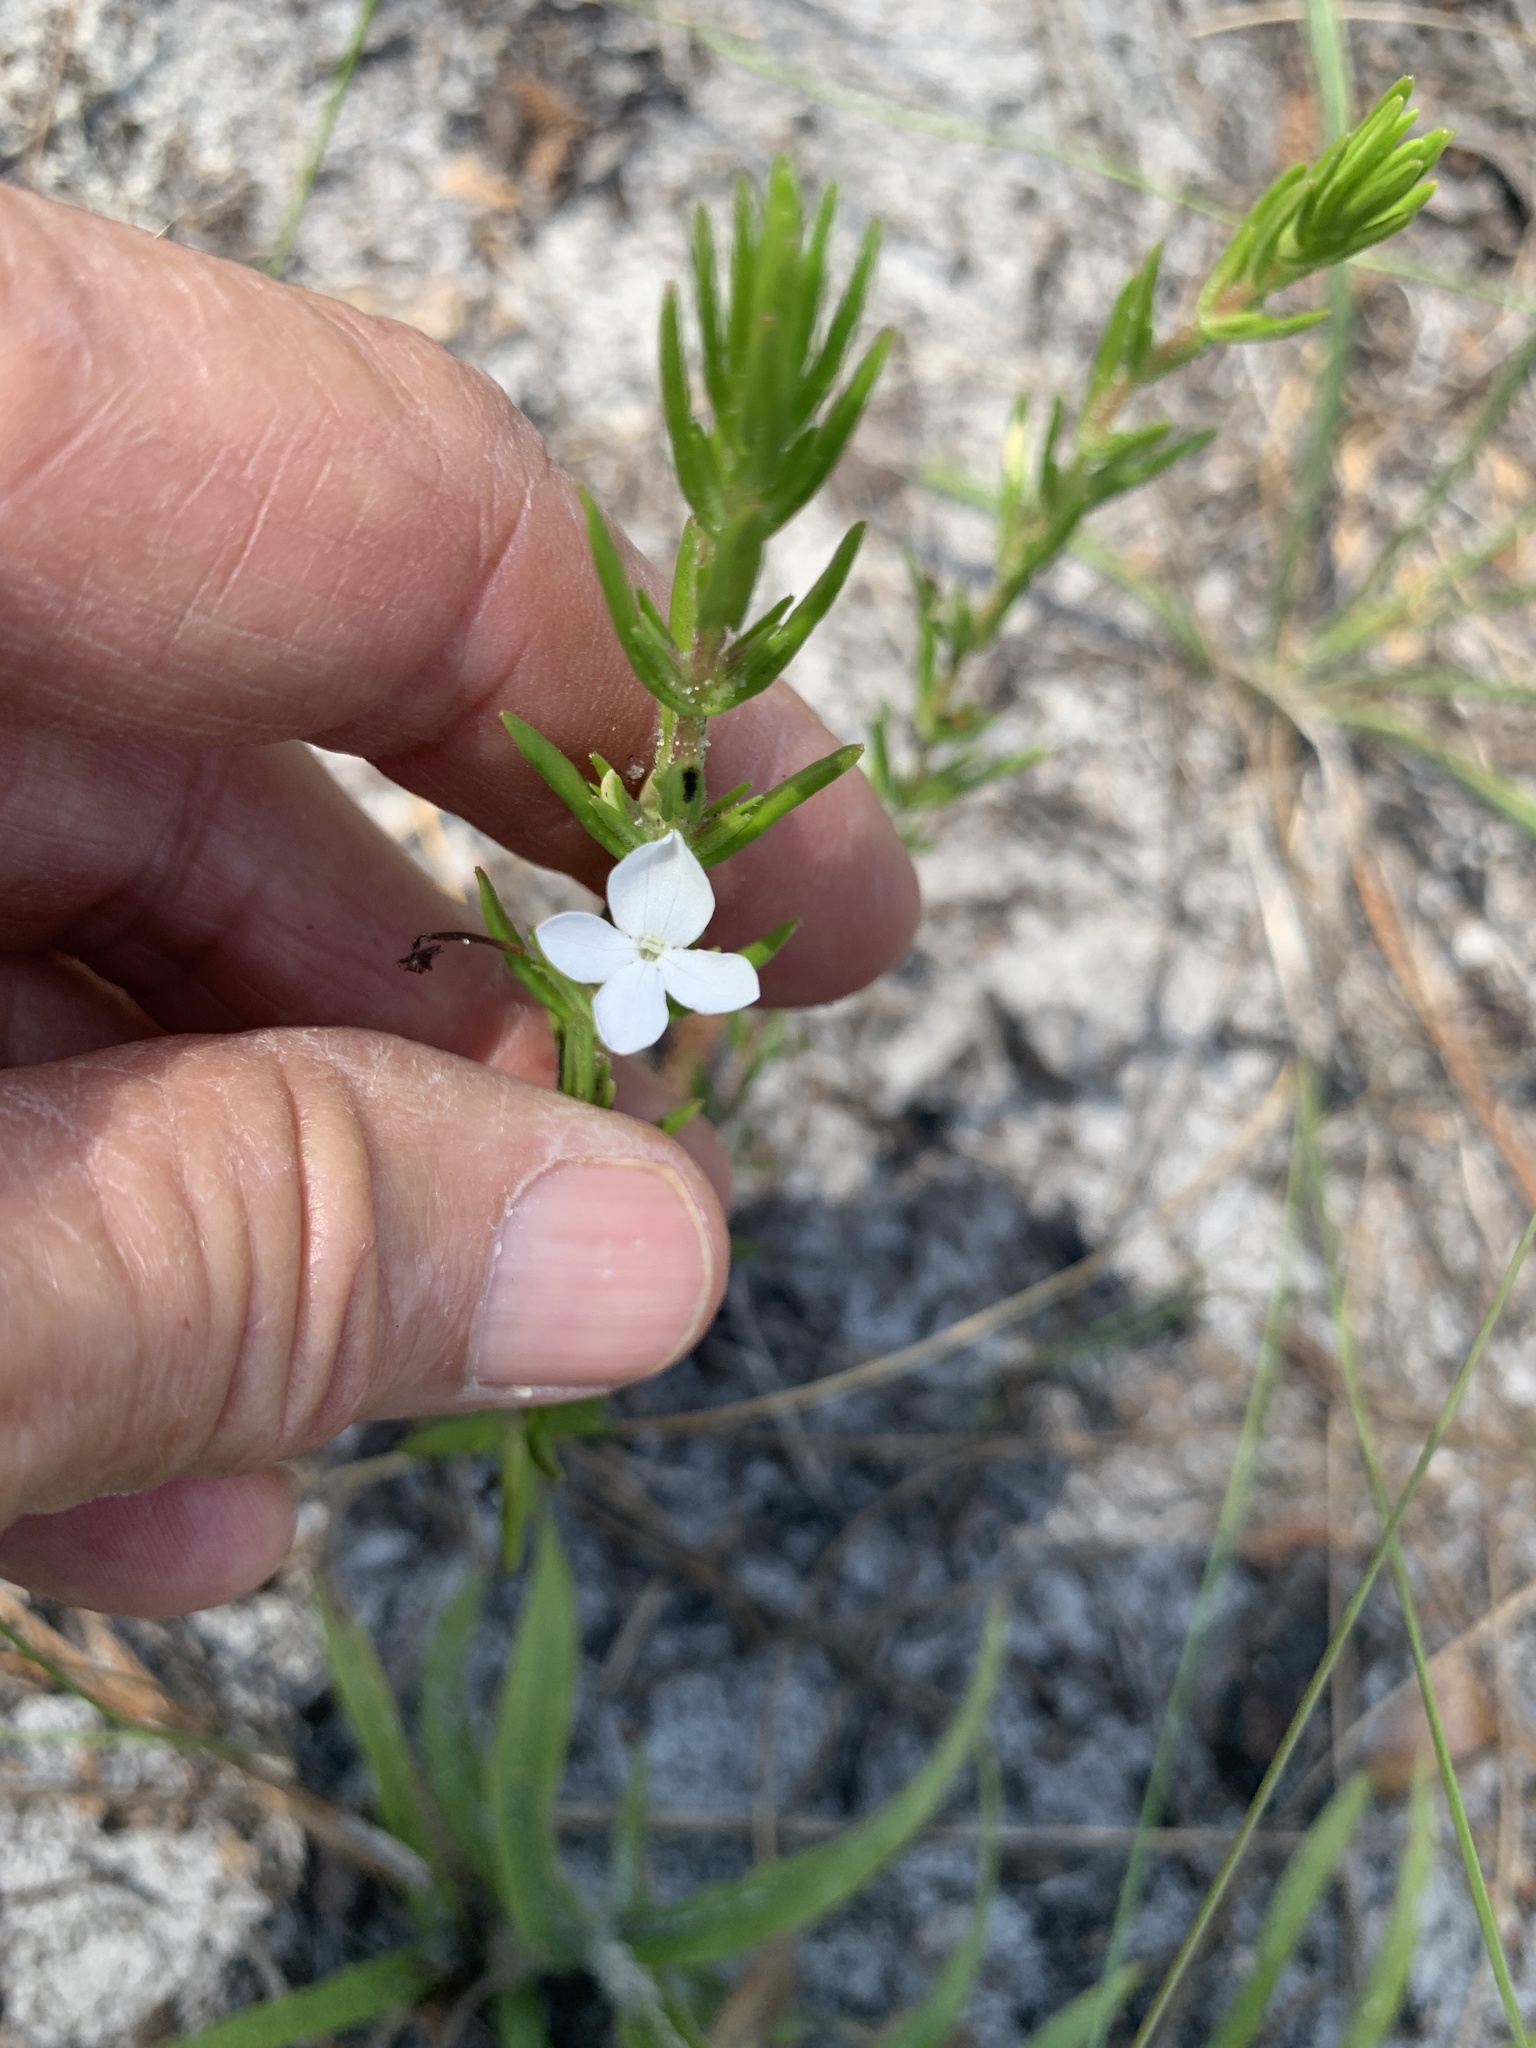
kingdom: Plantae
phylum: Tracheophyta
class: Magnoliopsida
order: Lamiales
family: Plantaginaceae
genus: Gratiola
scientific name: Gratiola hispida
